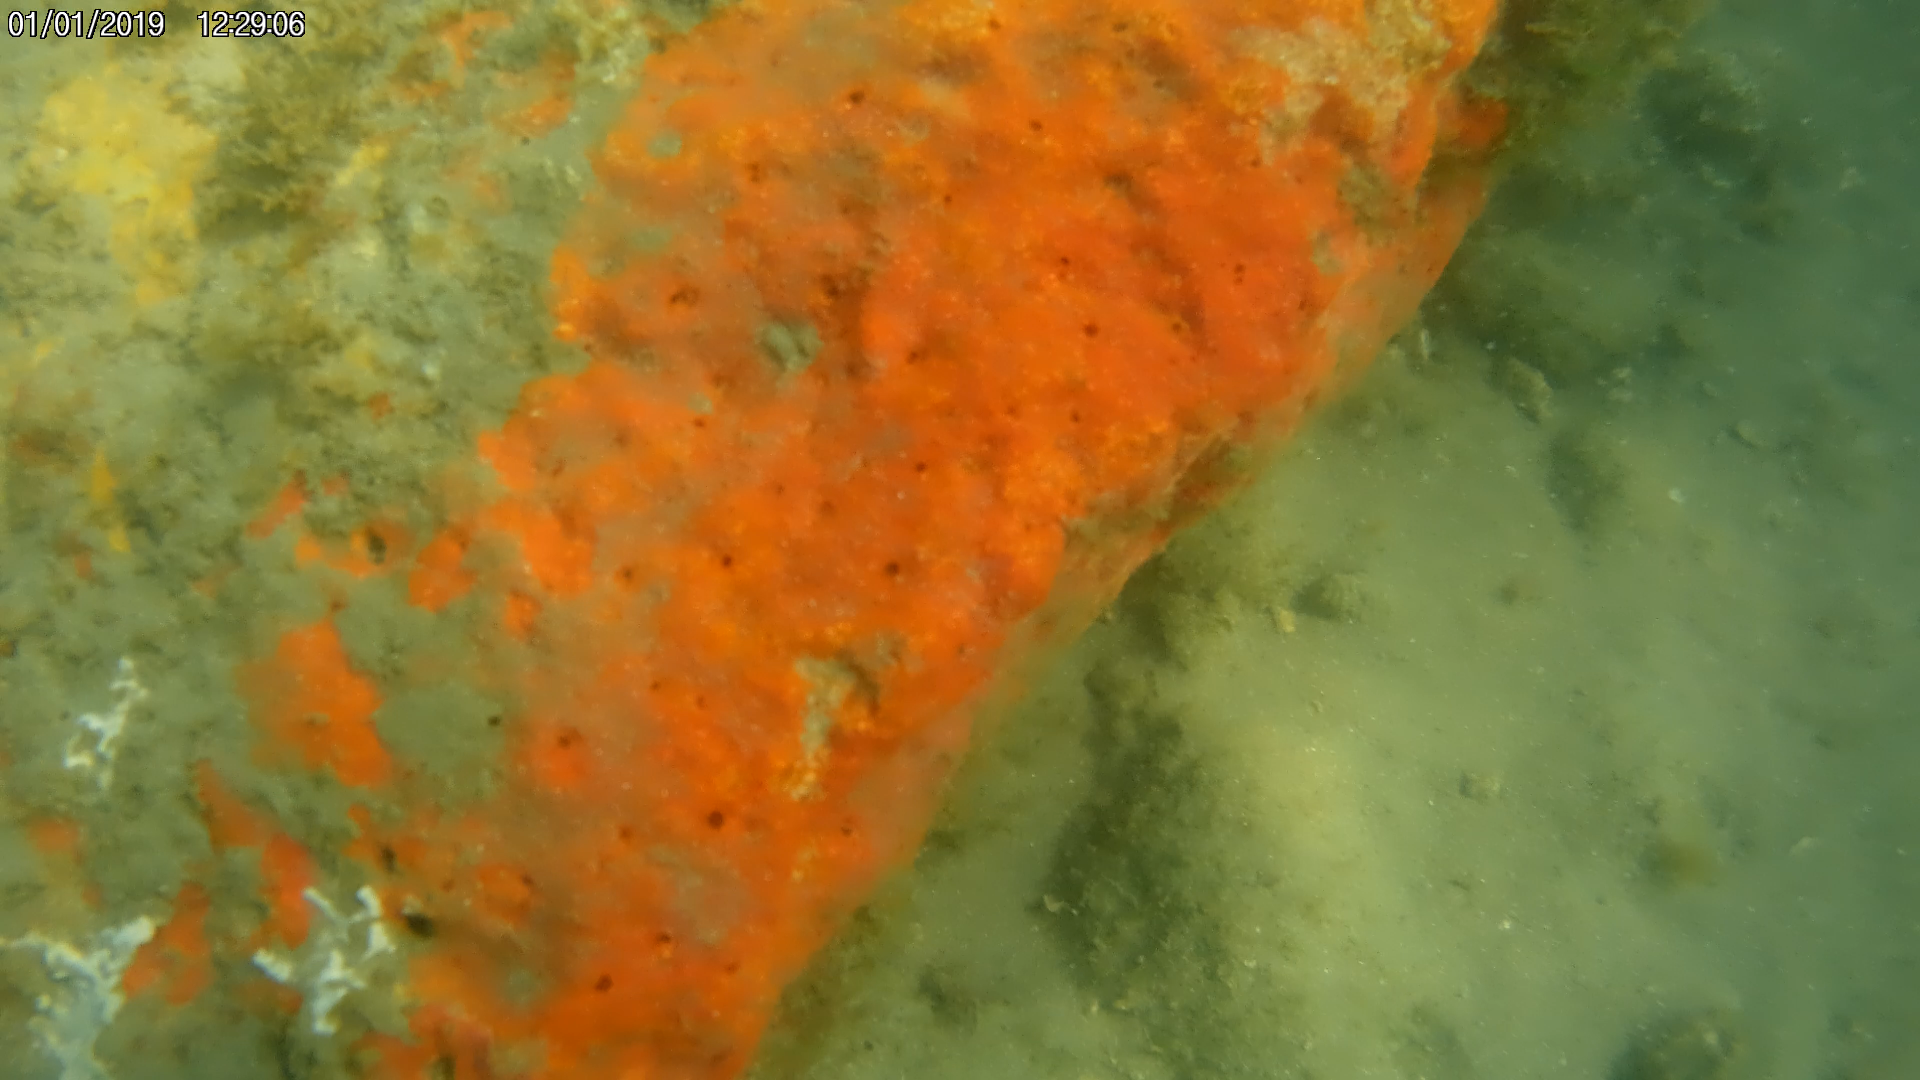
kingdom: Animalia
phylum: Porifera
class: Demospongiae
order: Clionaida
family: Clionaidae
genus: Pione
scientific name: Pione lampa
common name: Red boring sponge
